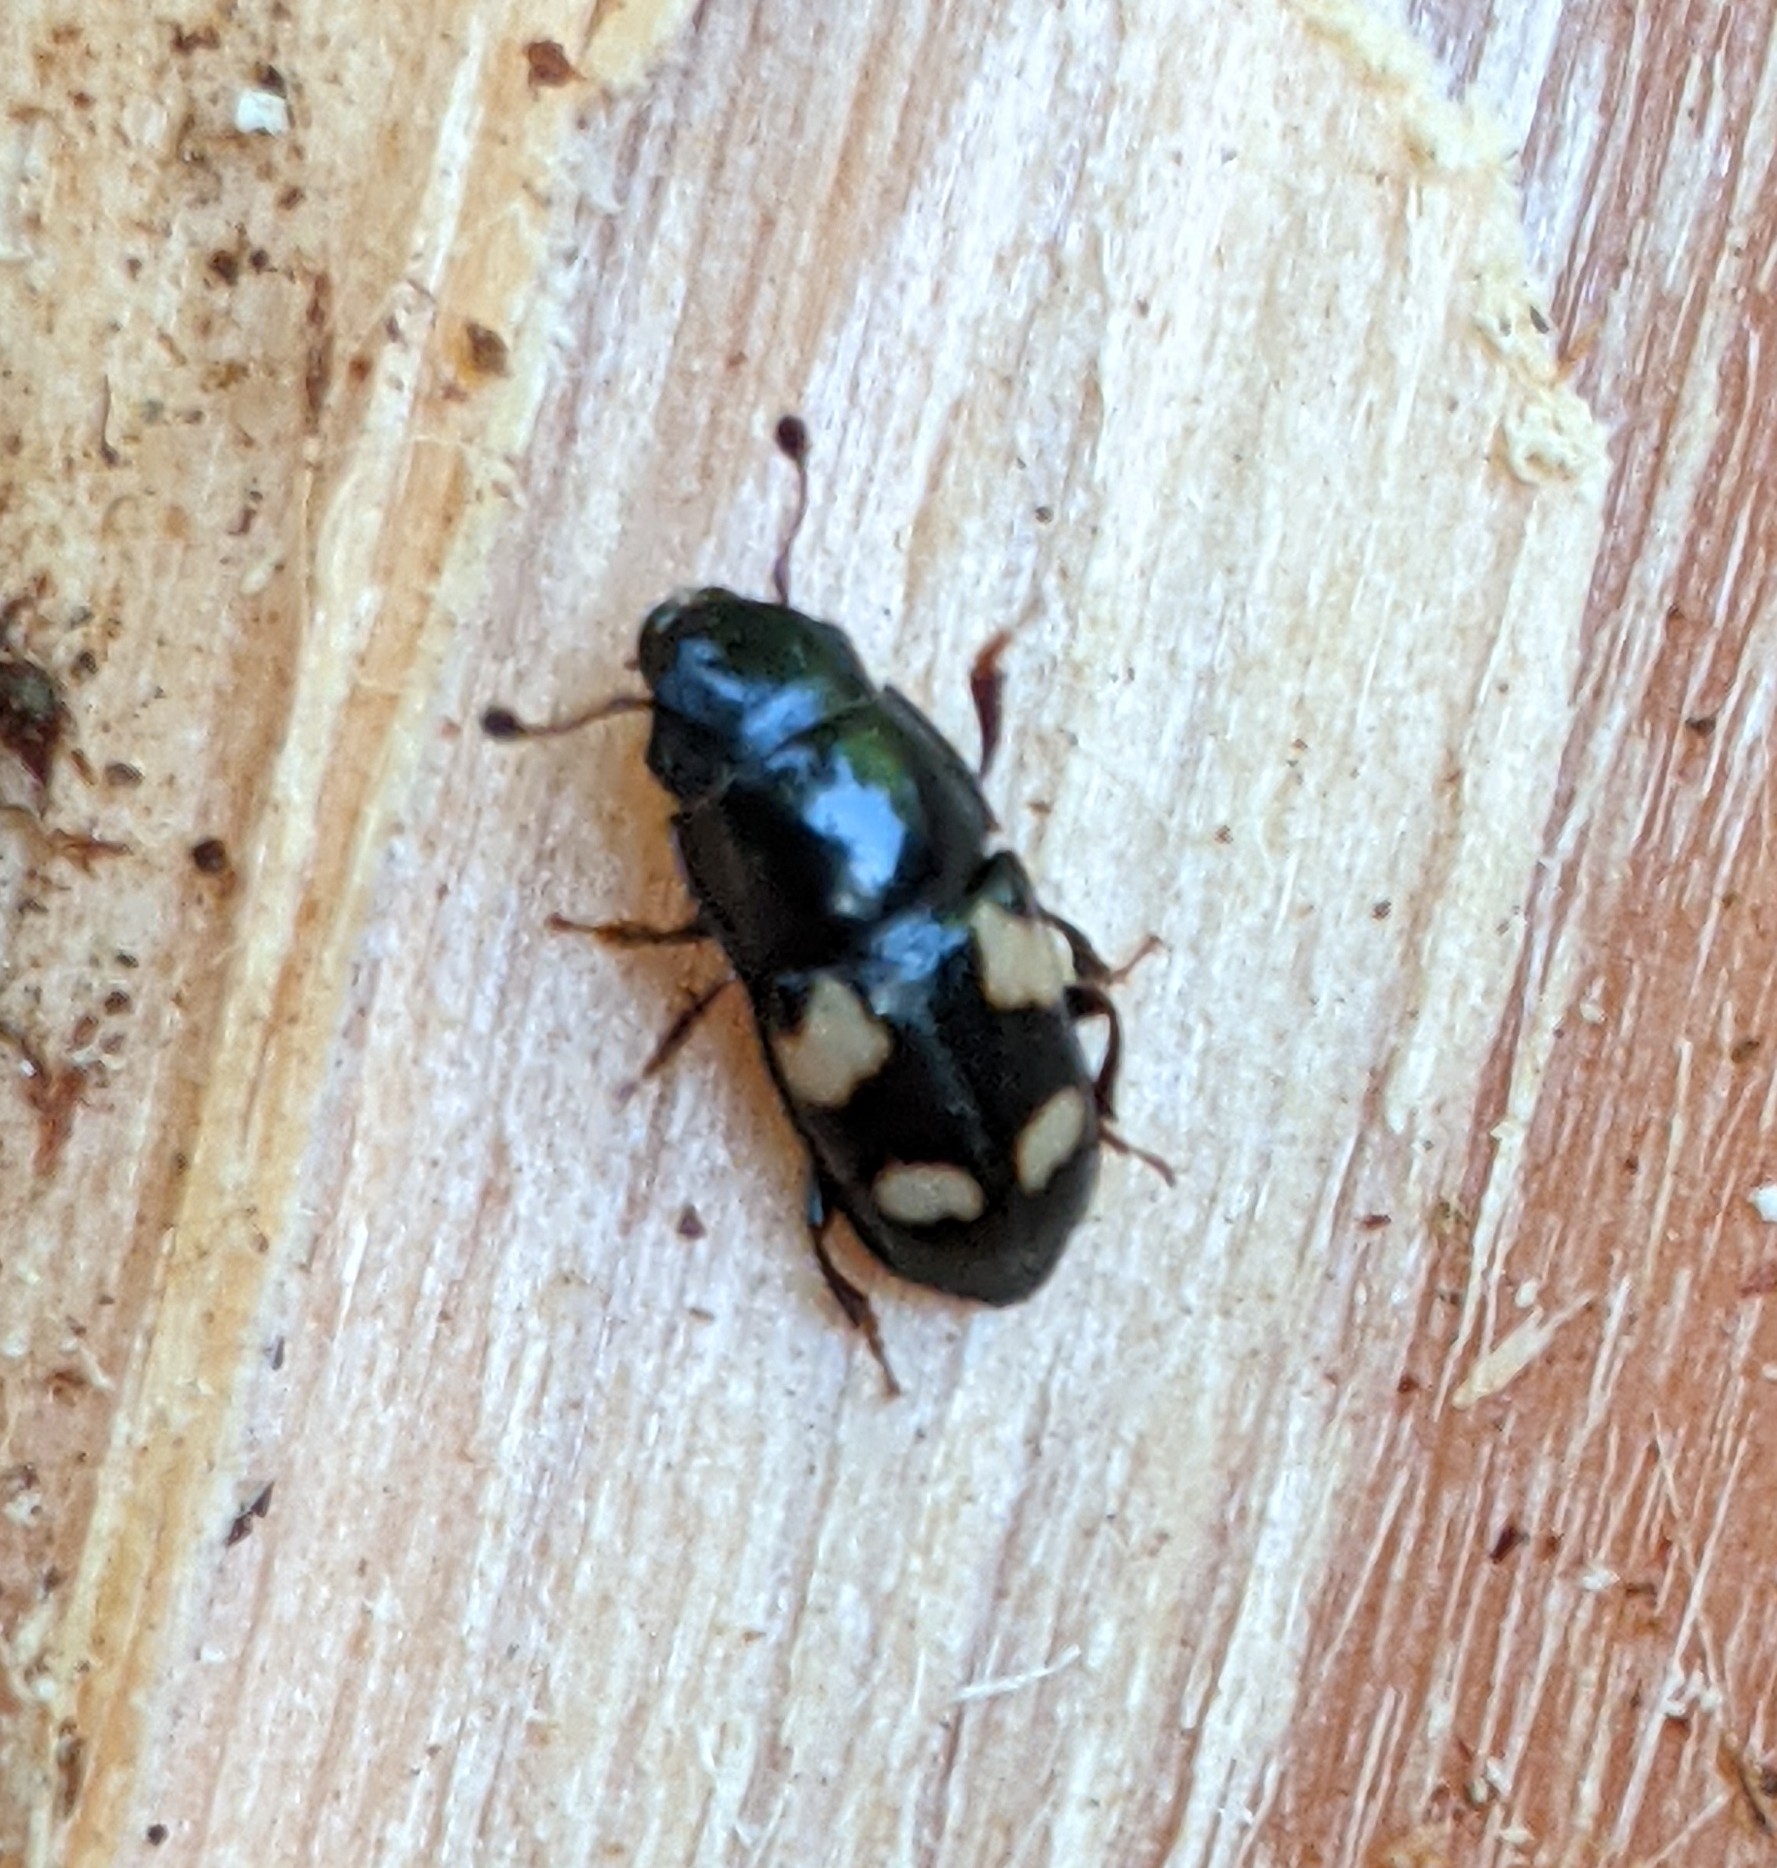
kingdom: Animalia
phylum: Arthropoda
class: Insecta
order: Coleoptera
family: Nitidulidae
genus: Glischrochilus
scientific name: Glischrochilus quadrisignatus
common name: Picnic beetle
